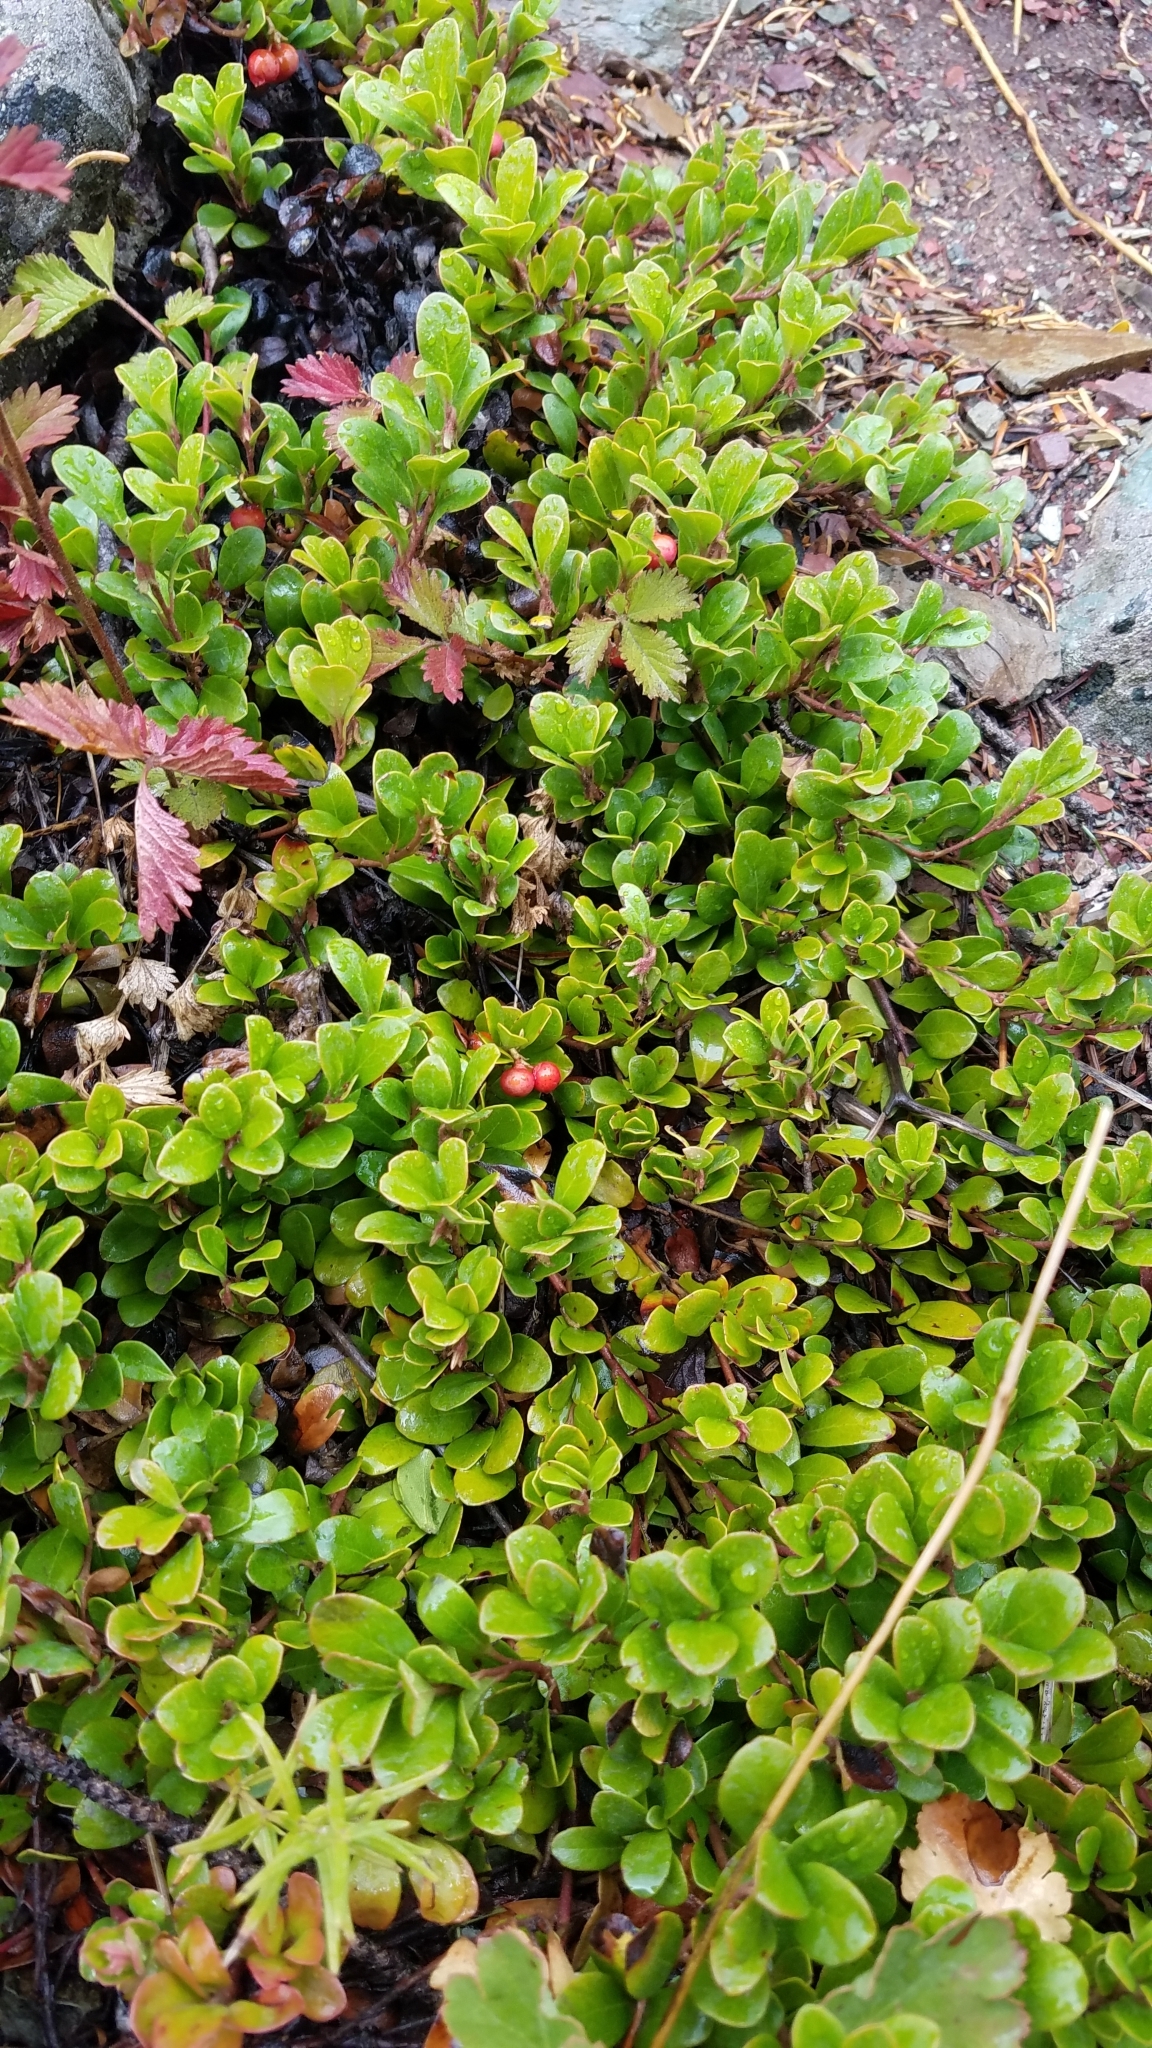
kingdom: Plantae
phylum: Tracheophyta
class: Magnoliopsida
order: Ericales
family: Ericaceae
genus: Arctostaphylos
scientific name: Arctostaphylos uva-ursi
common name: Bearberry
